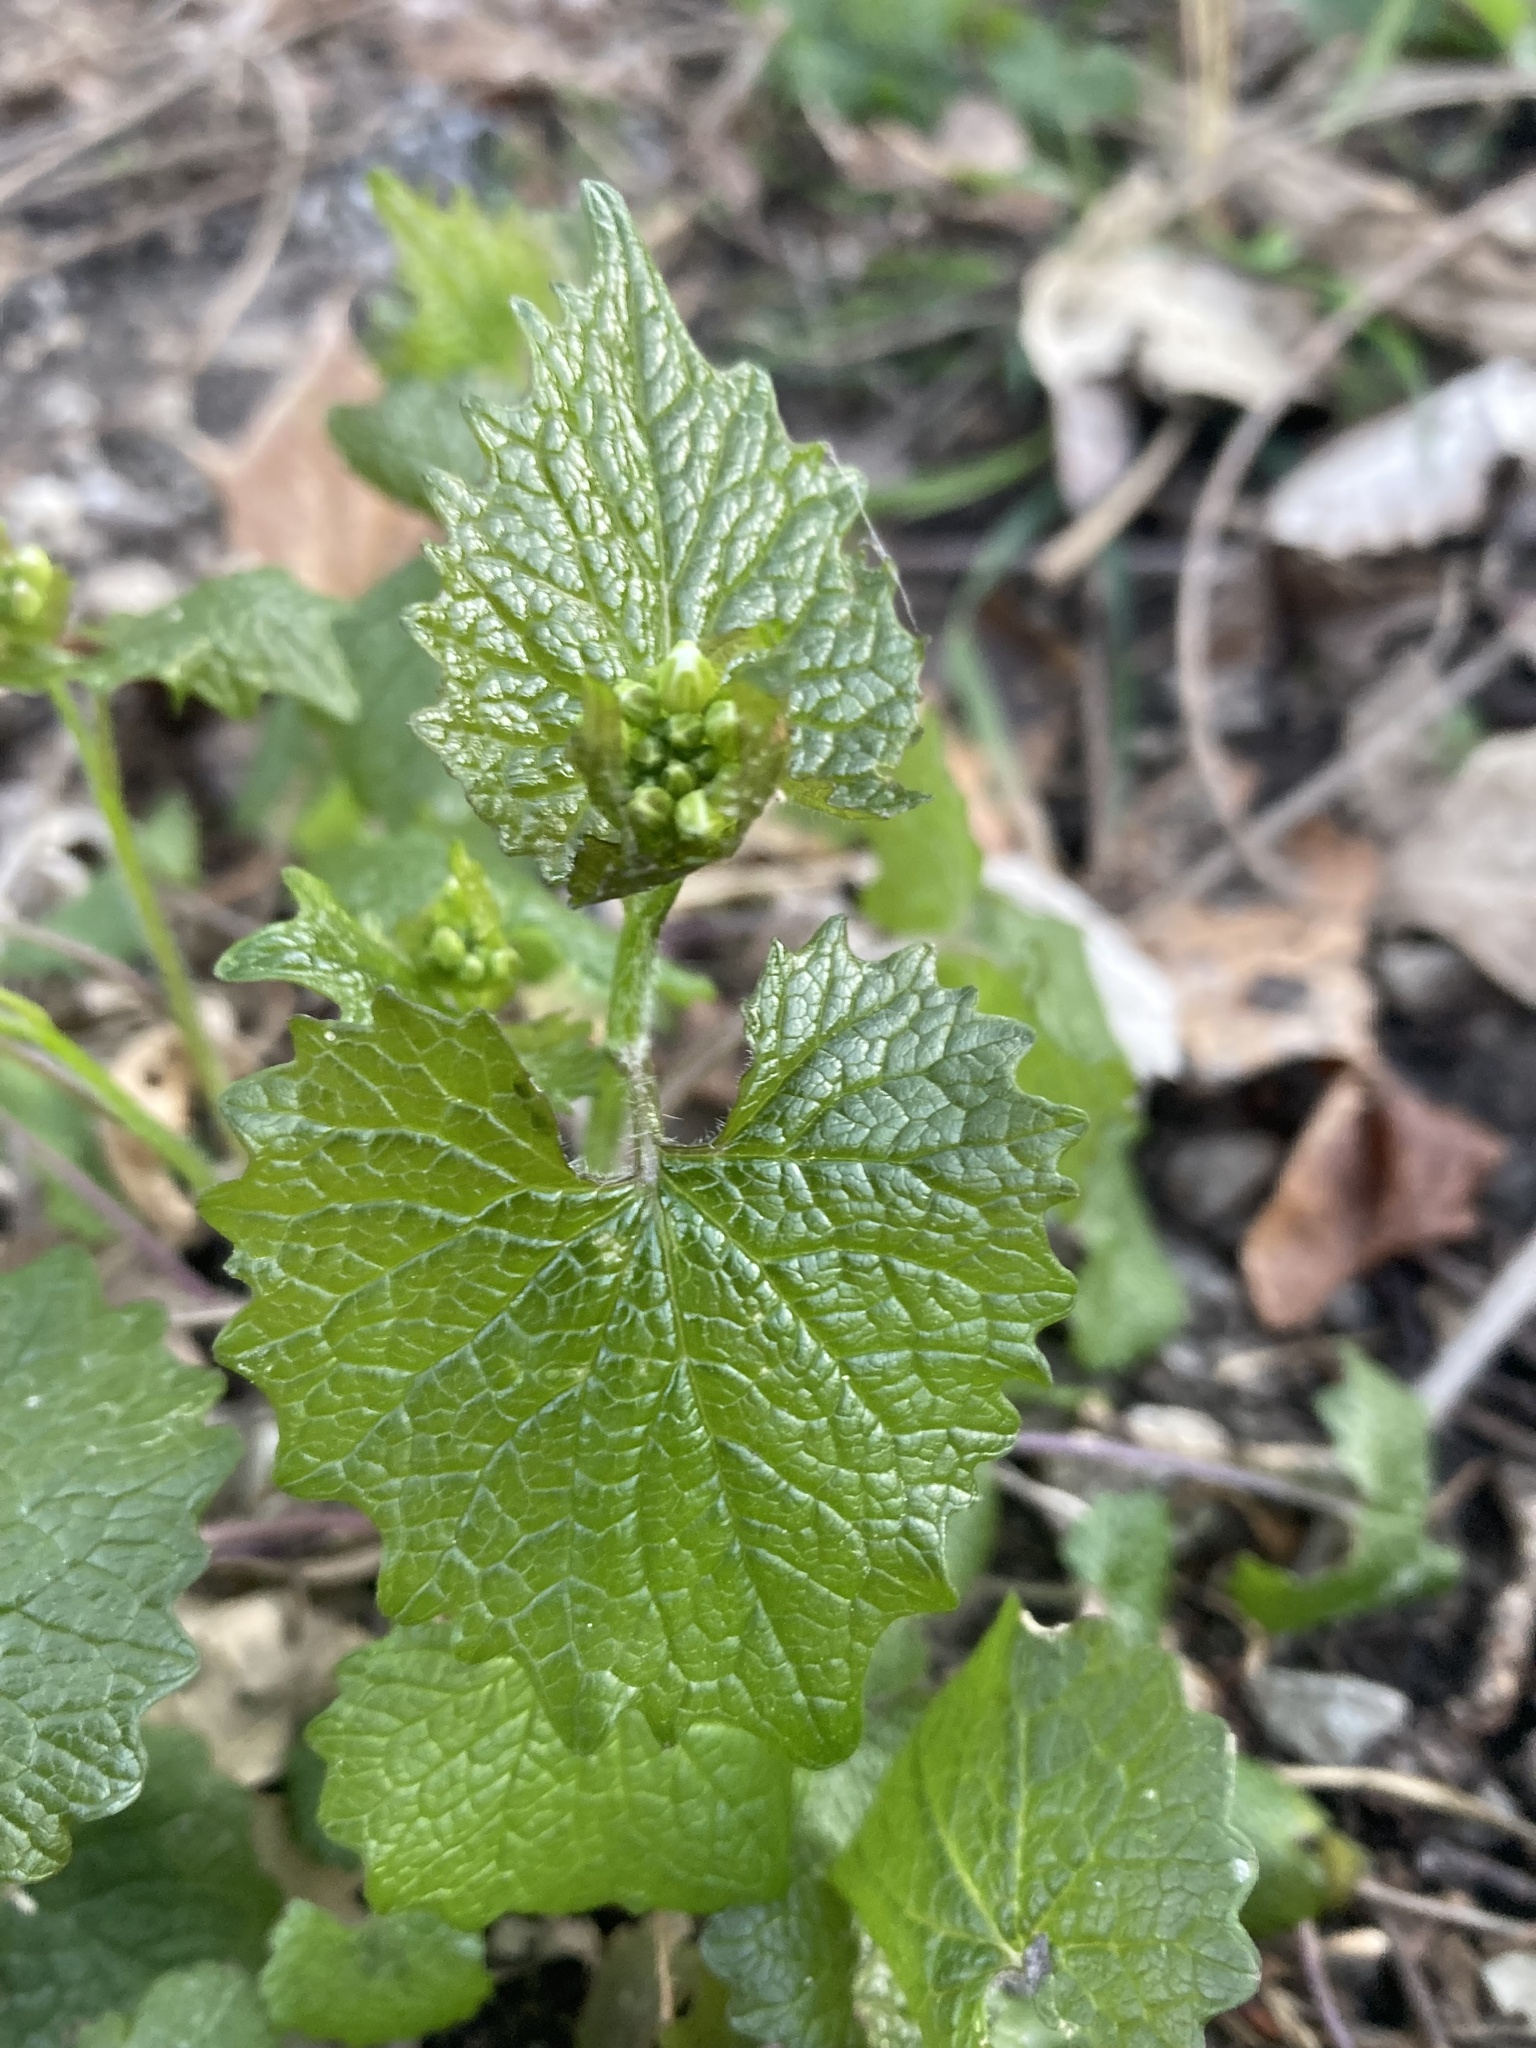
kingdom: Plantae
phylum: Tracheophyta
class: Magnoliopsida
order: Brassicales
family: Brassicaceae
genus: Alliaria
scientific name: Alliaria petiolata
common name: Garlic mustard
